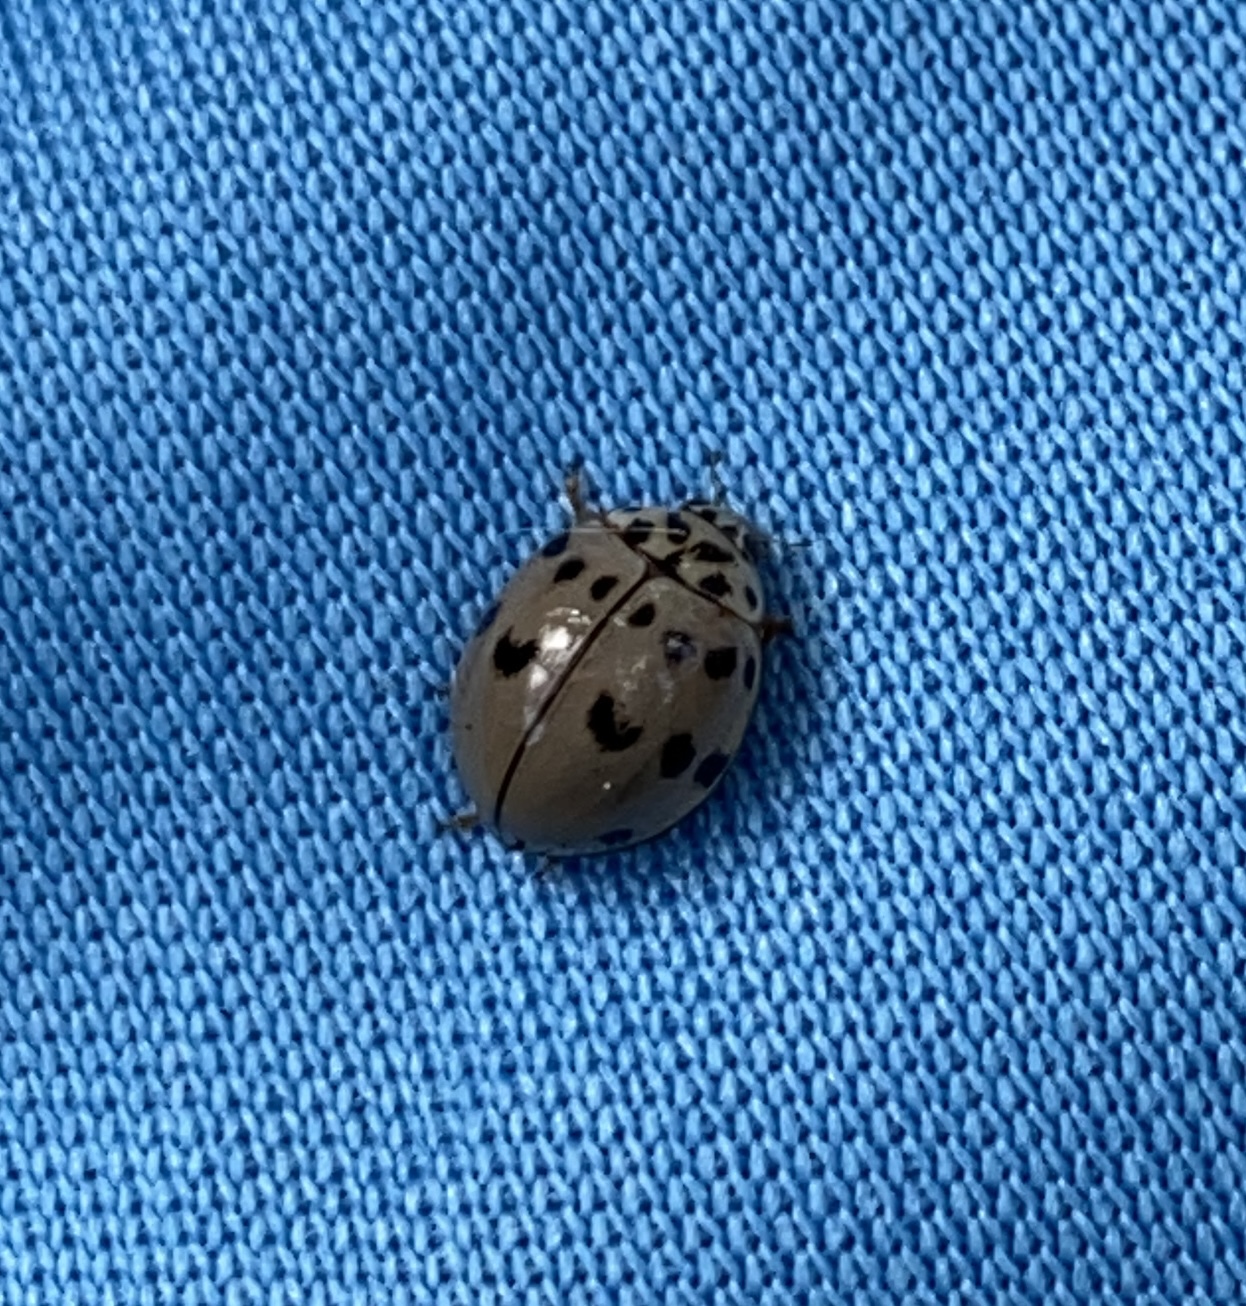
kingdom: Animalia
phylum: Arthropoda
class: Insecta
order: Coleoptera
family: Coccinellidae
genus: Olla
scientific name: Olla v-nigrum
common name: Ashy gray lady beetle
